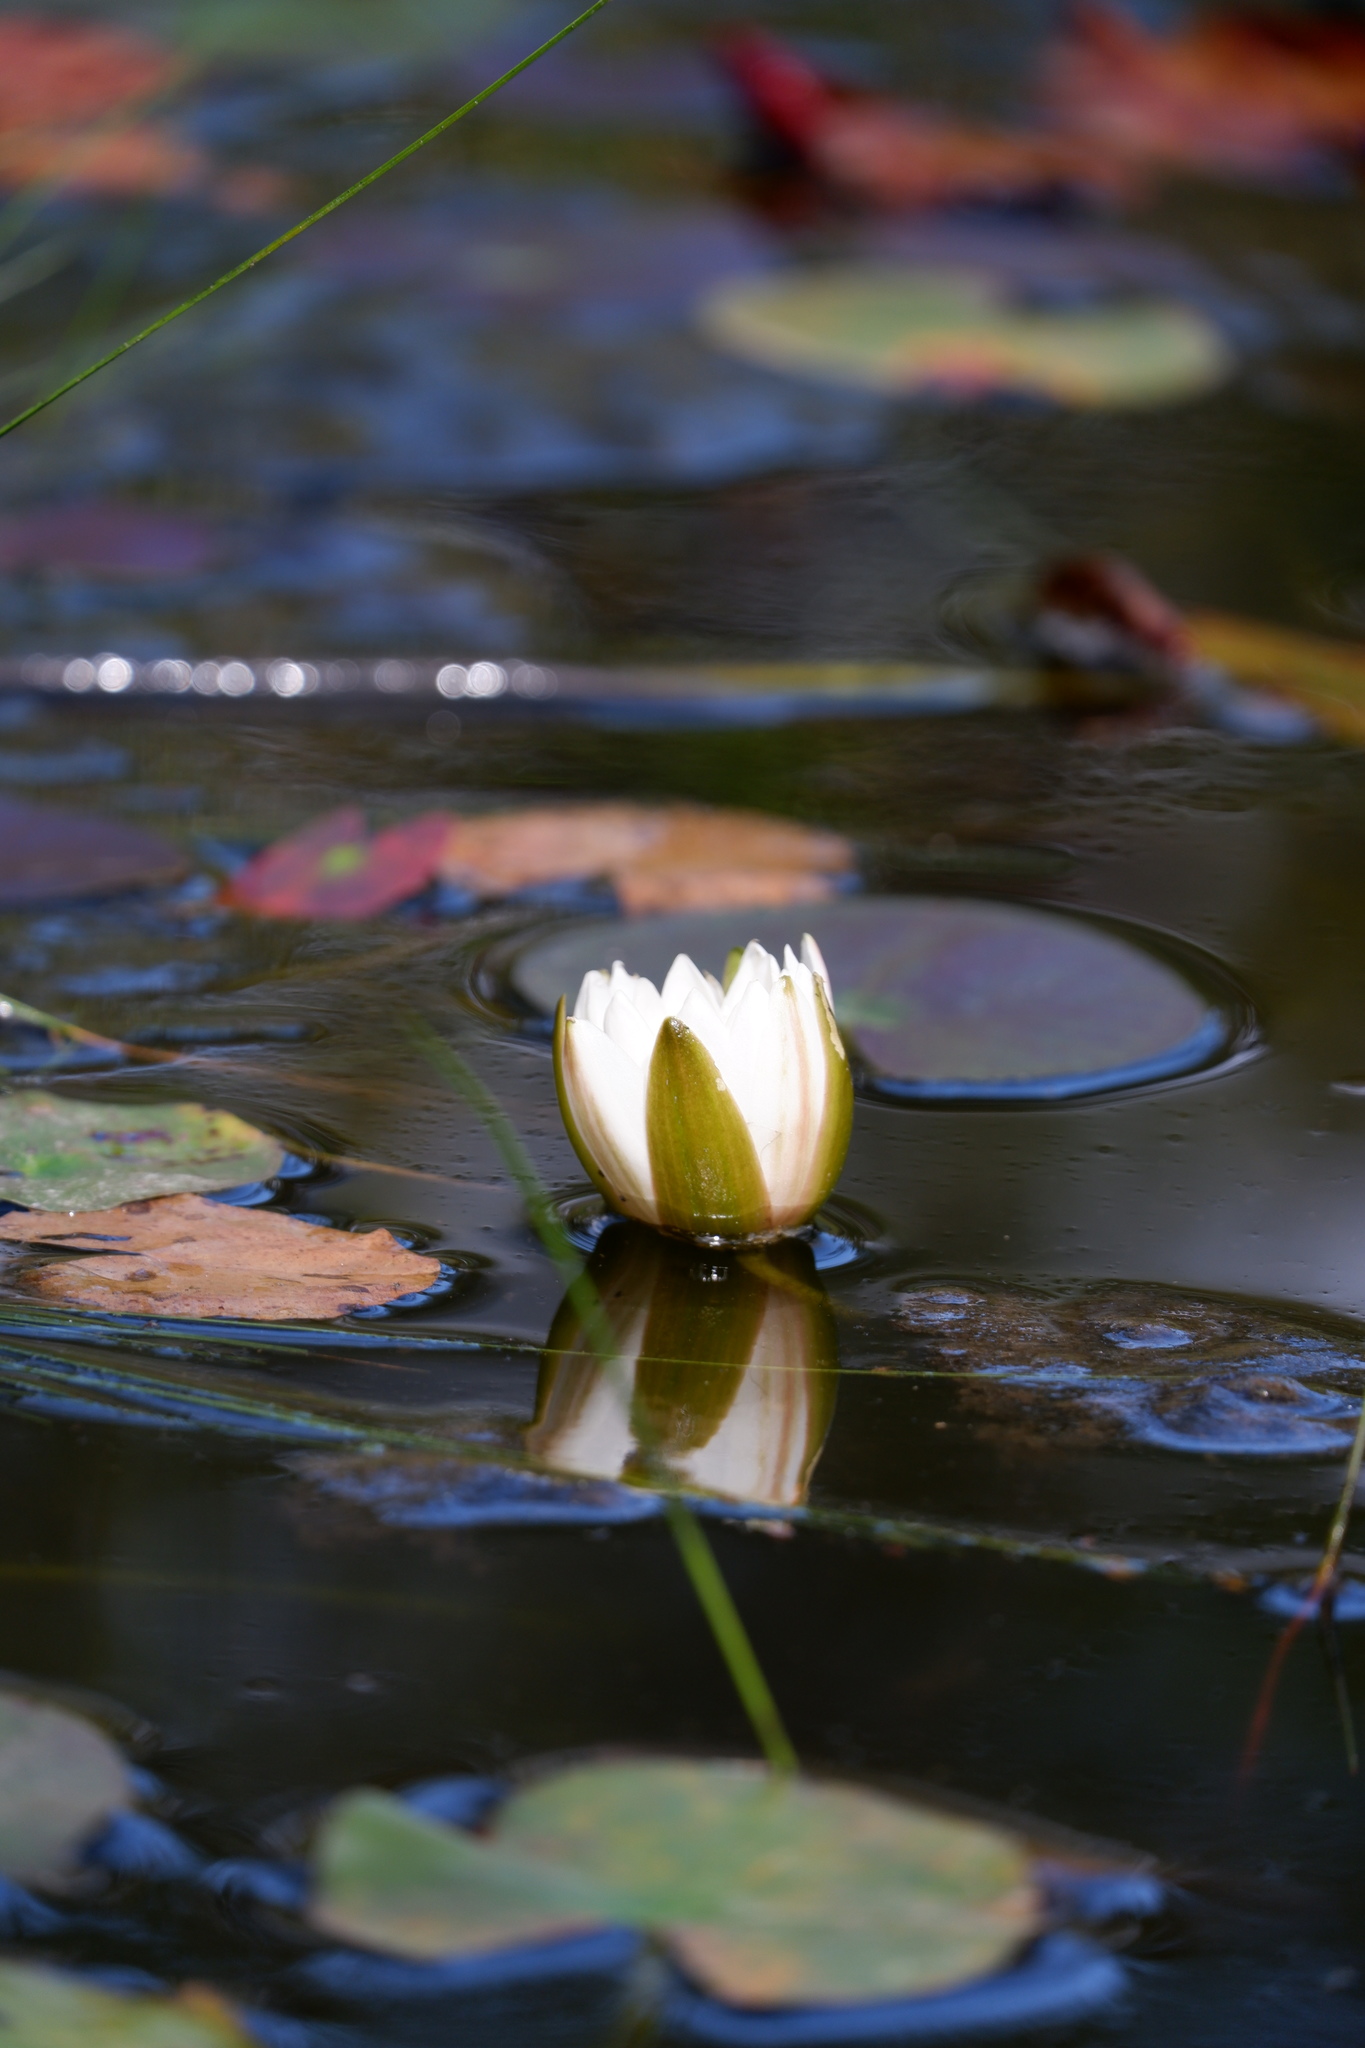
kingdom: Plantae
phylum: Tracheophyta
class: Magnoliopsida
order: Nymphaeales
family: Nymphaeaceae
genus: Nymphaea
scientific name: Nymphaea odorata
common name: Fragrant water-lily
